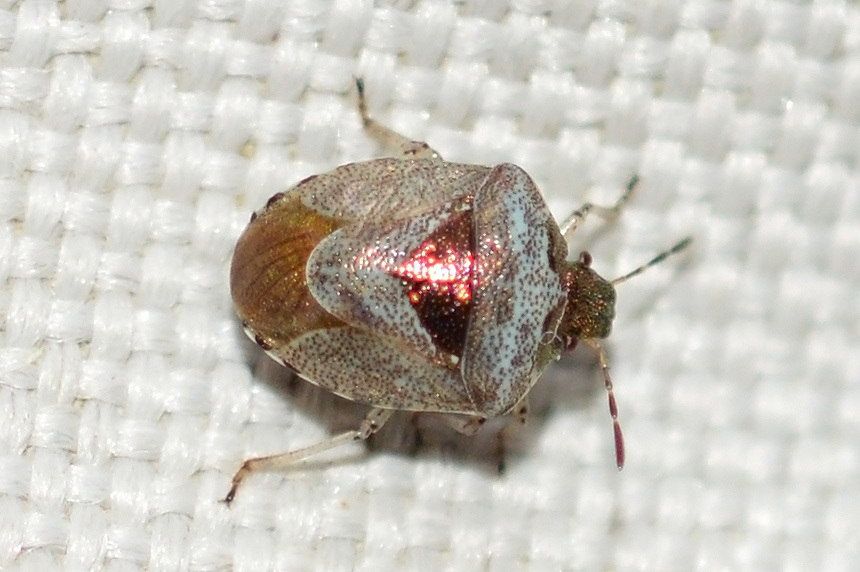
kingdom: Animalia
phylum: Arthropoda
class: Insecta
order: Hemiptera
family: Pentatomidae
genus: Eysarcoris
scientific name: Eysarcoris venustissimus
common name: Woundwort shieldbug
